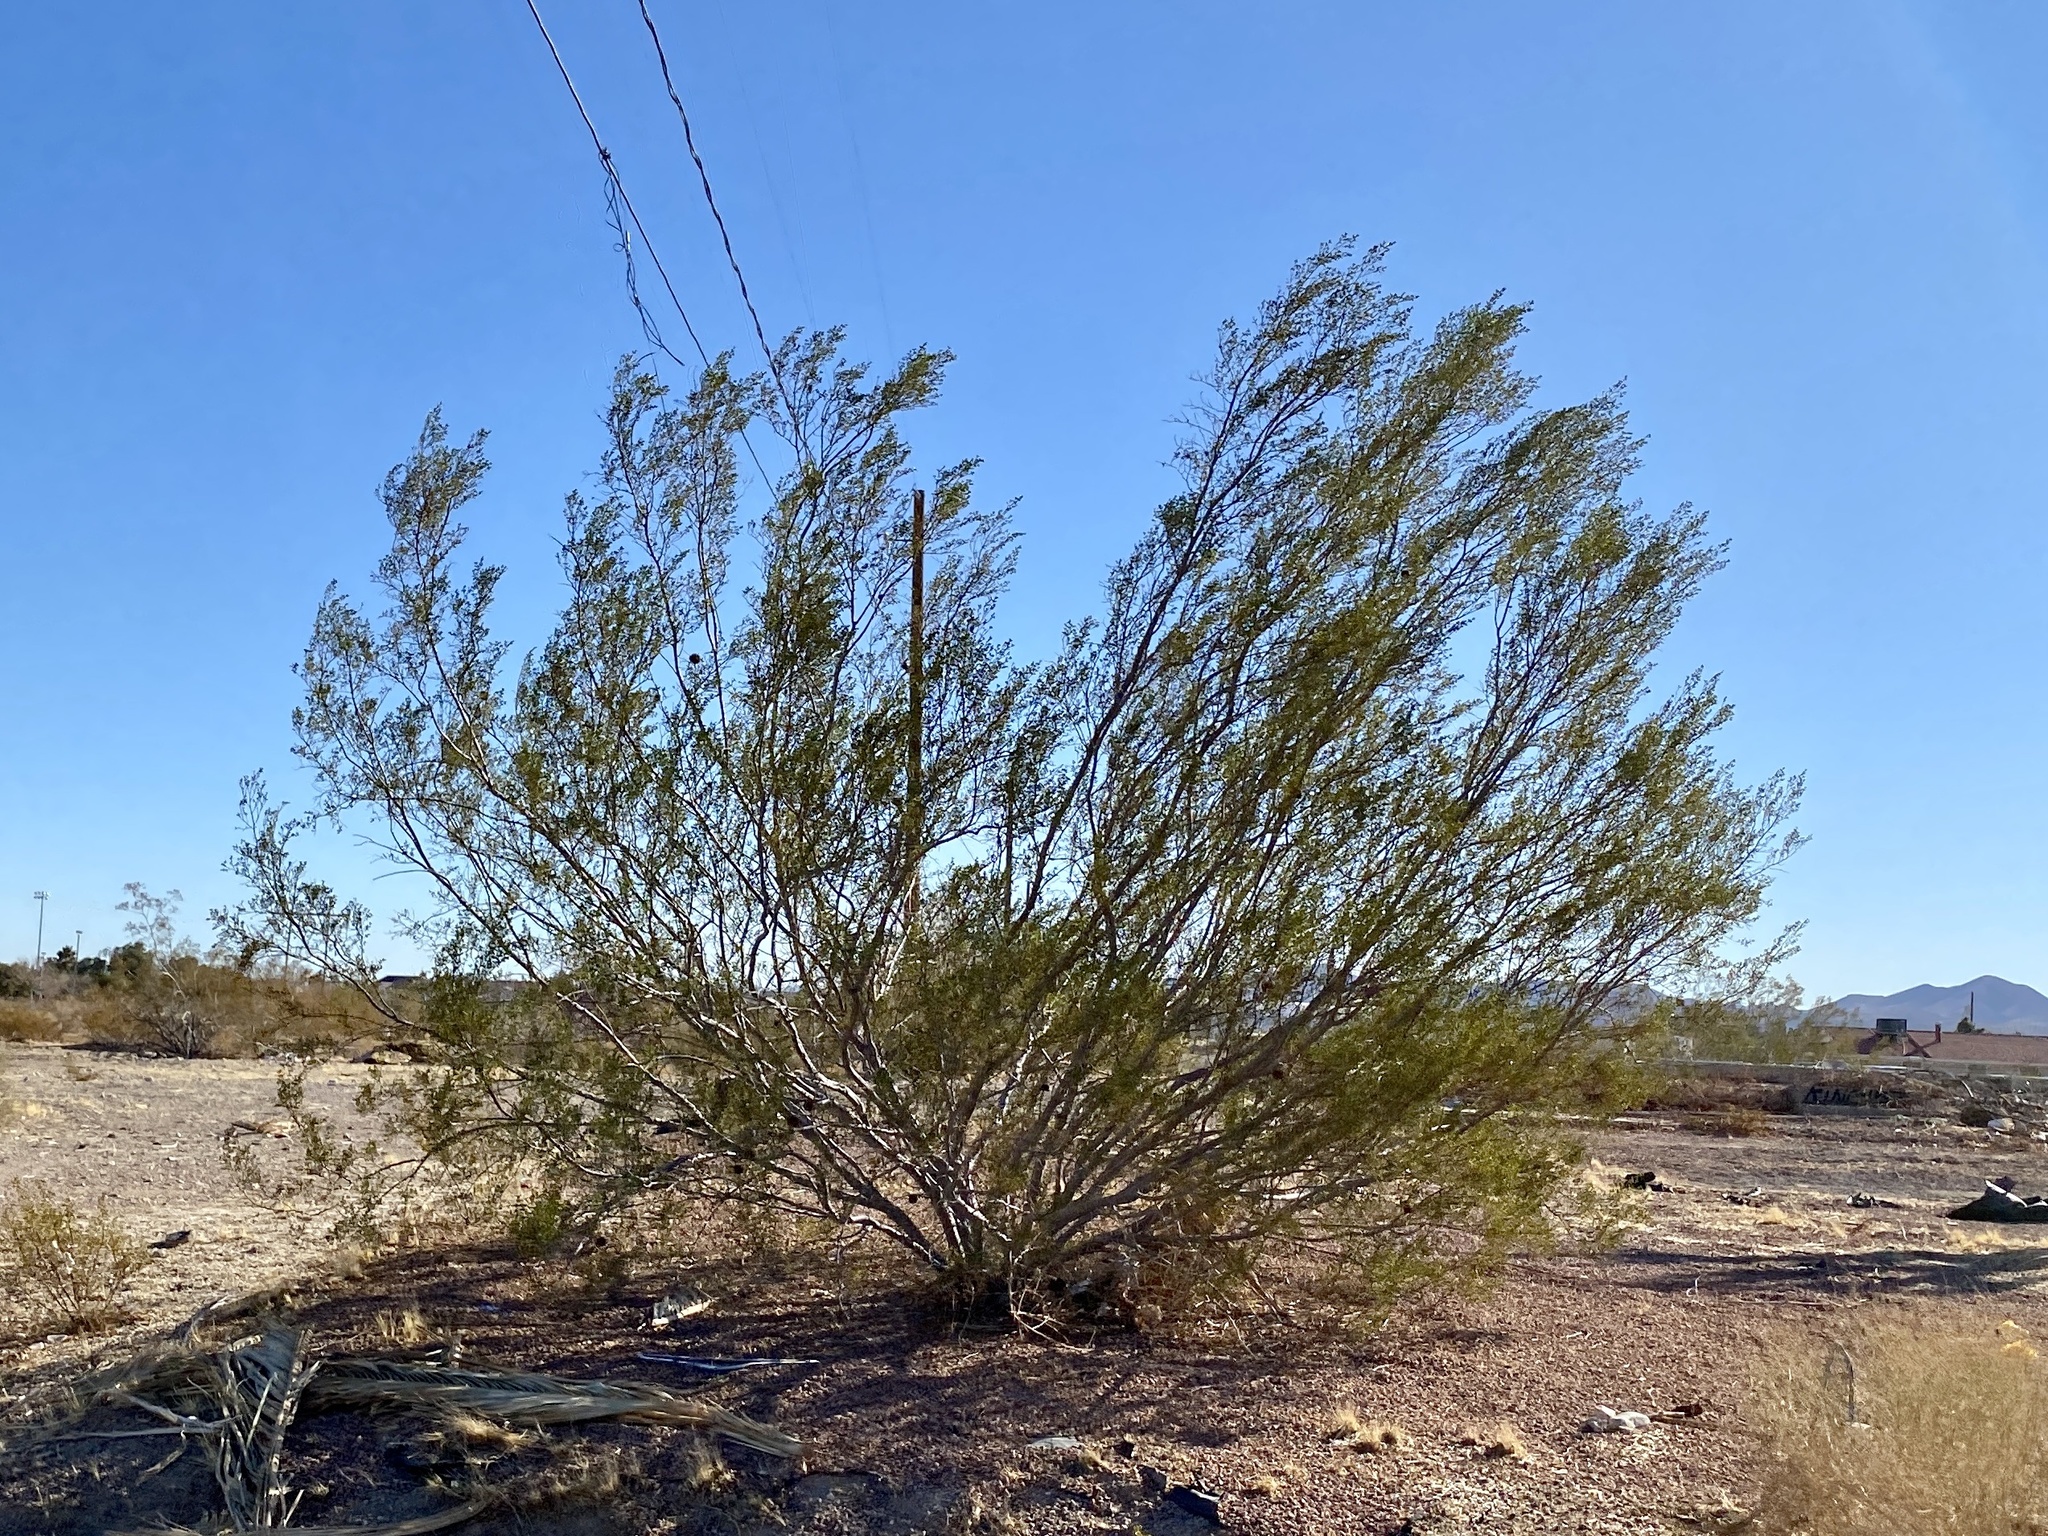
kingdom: Plantae
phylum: Tracheophyta
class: Magnoliopsida
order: Zygophyllales
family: Zygophyllaceae
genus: Larrea
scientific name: Larrea tridentata
